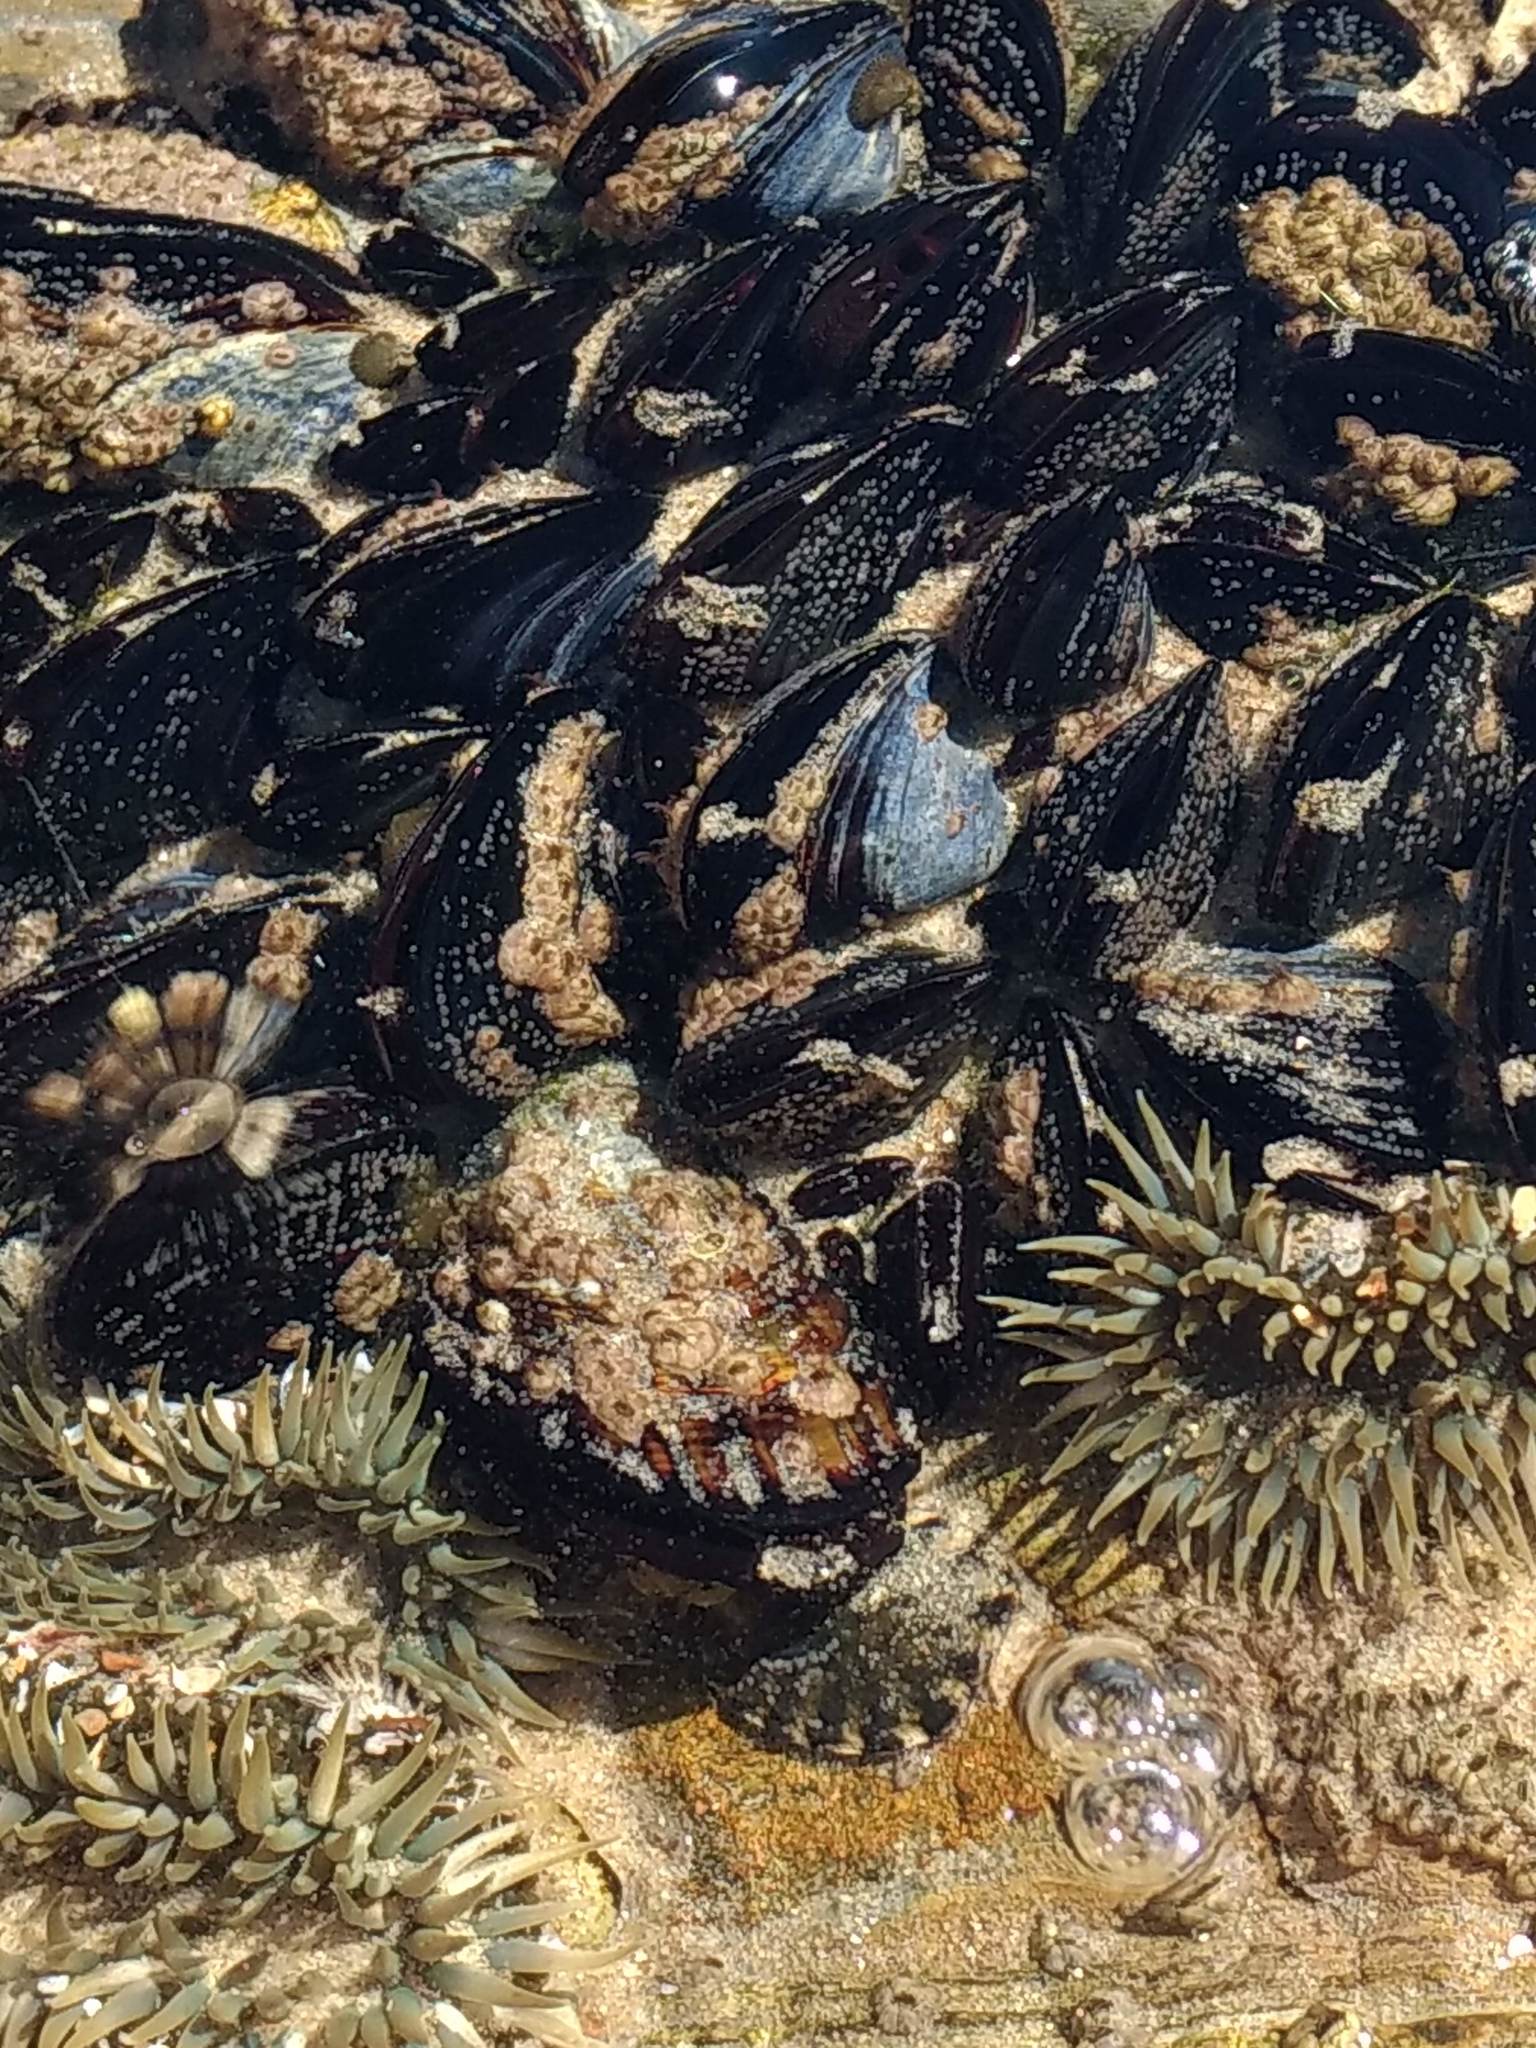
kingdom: Animalia
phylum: Mollusca
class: Bivalvia
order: Mytilida
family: Mytilidae
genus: Mytilus
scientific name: Mytilus californianus
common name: California mussel
